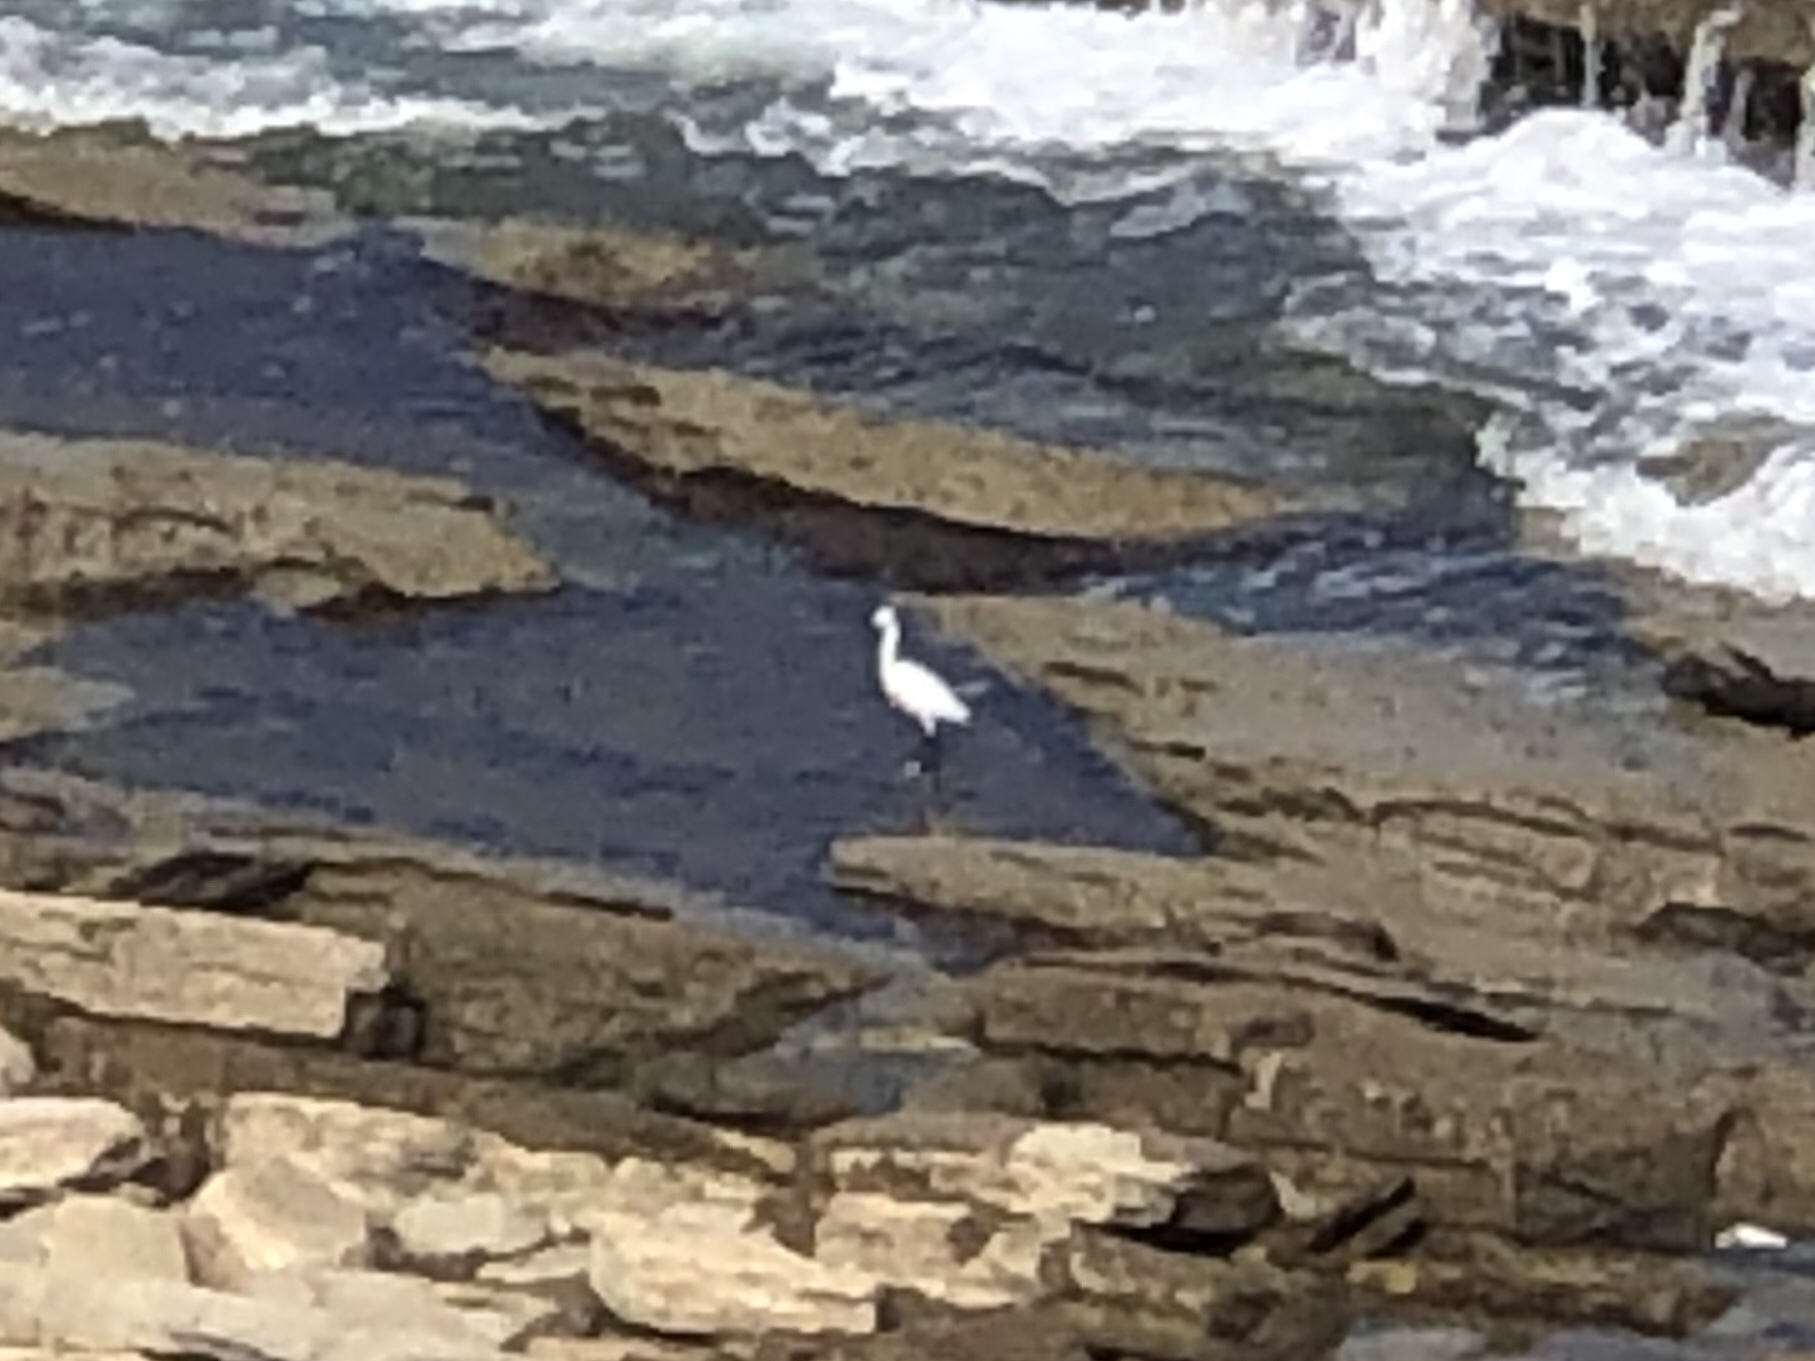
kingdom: Animalia
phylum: Chordata
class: Aves
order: Pelecaniformes
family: Ardeidae
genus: Egretta
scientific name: Egretta garzetta
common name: Little egret
